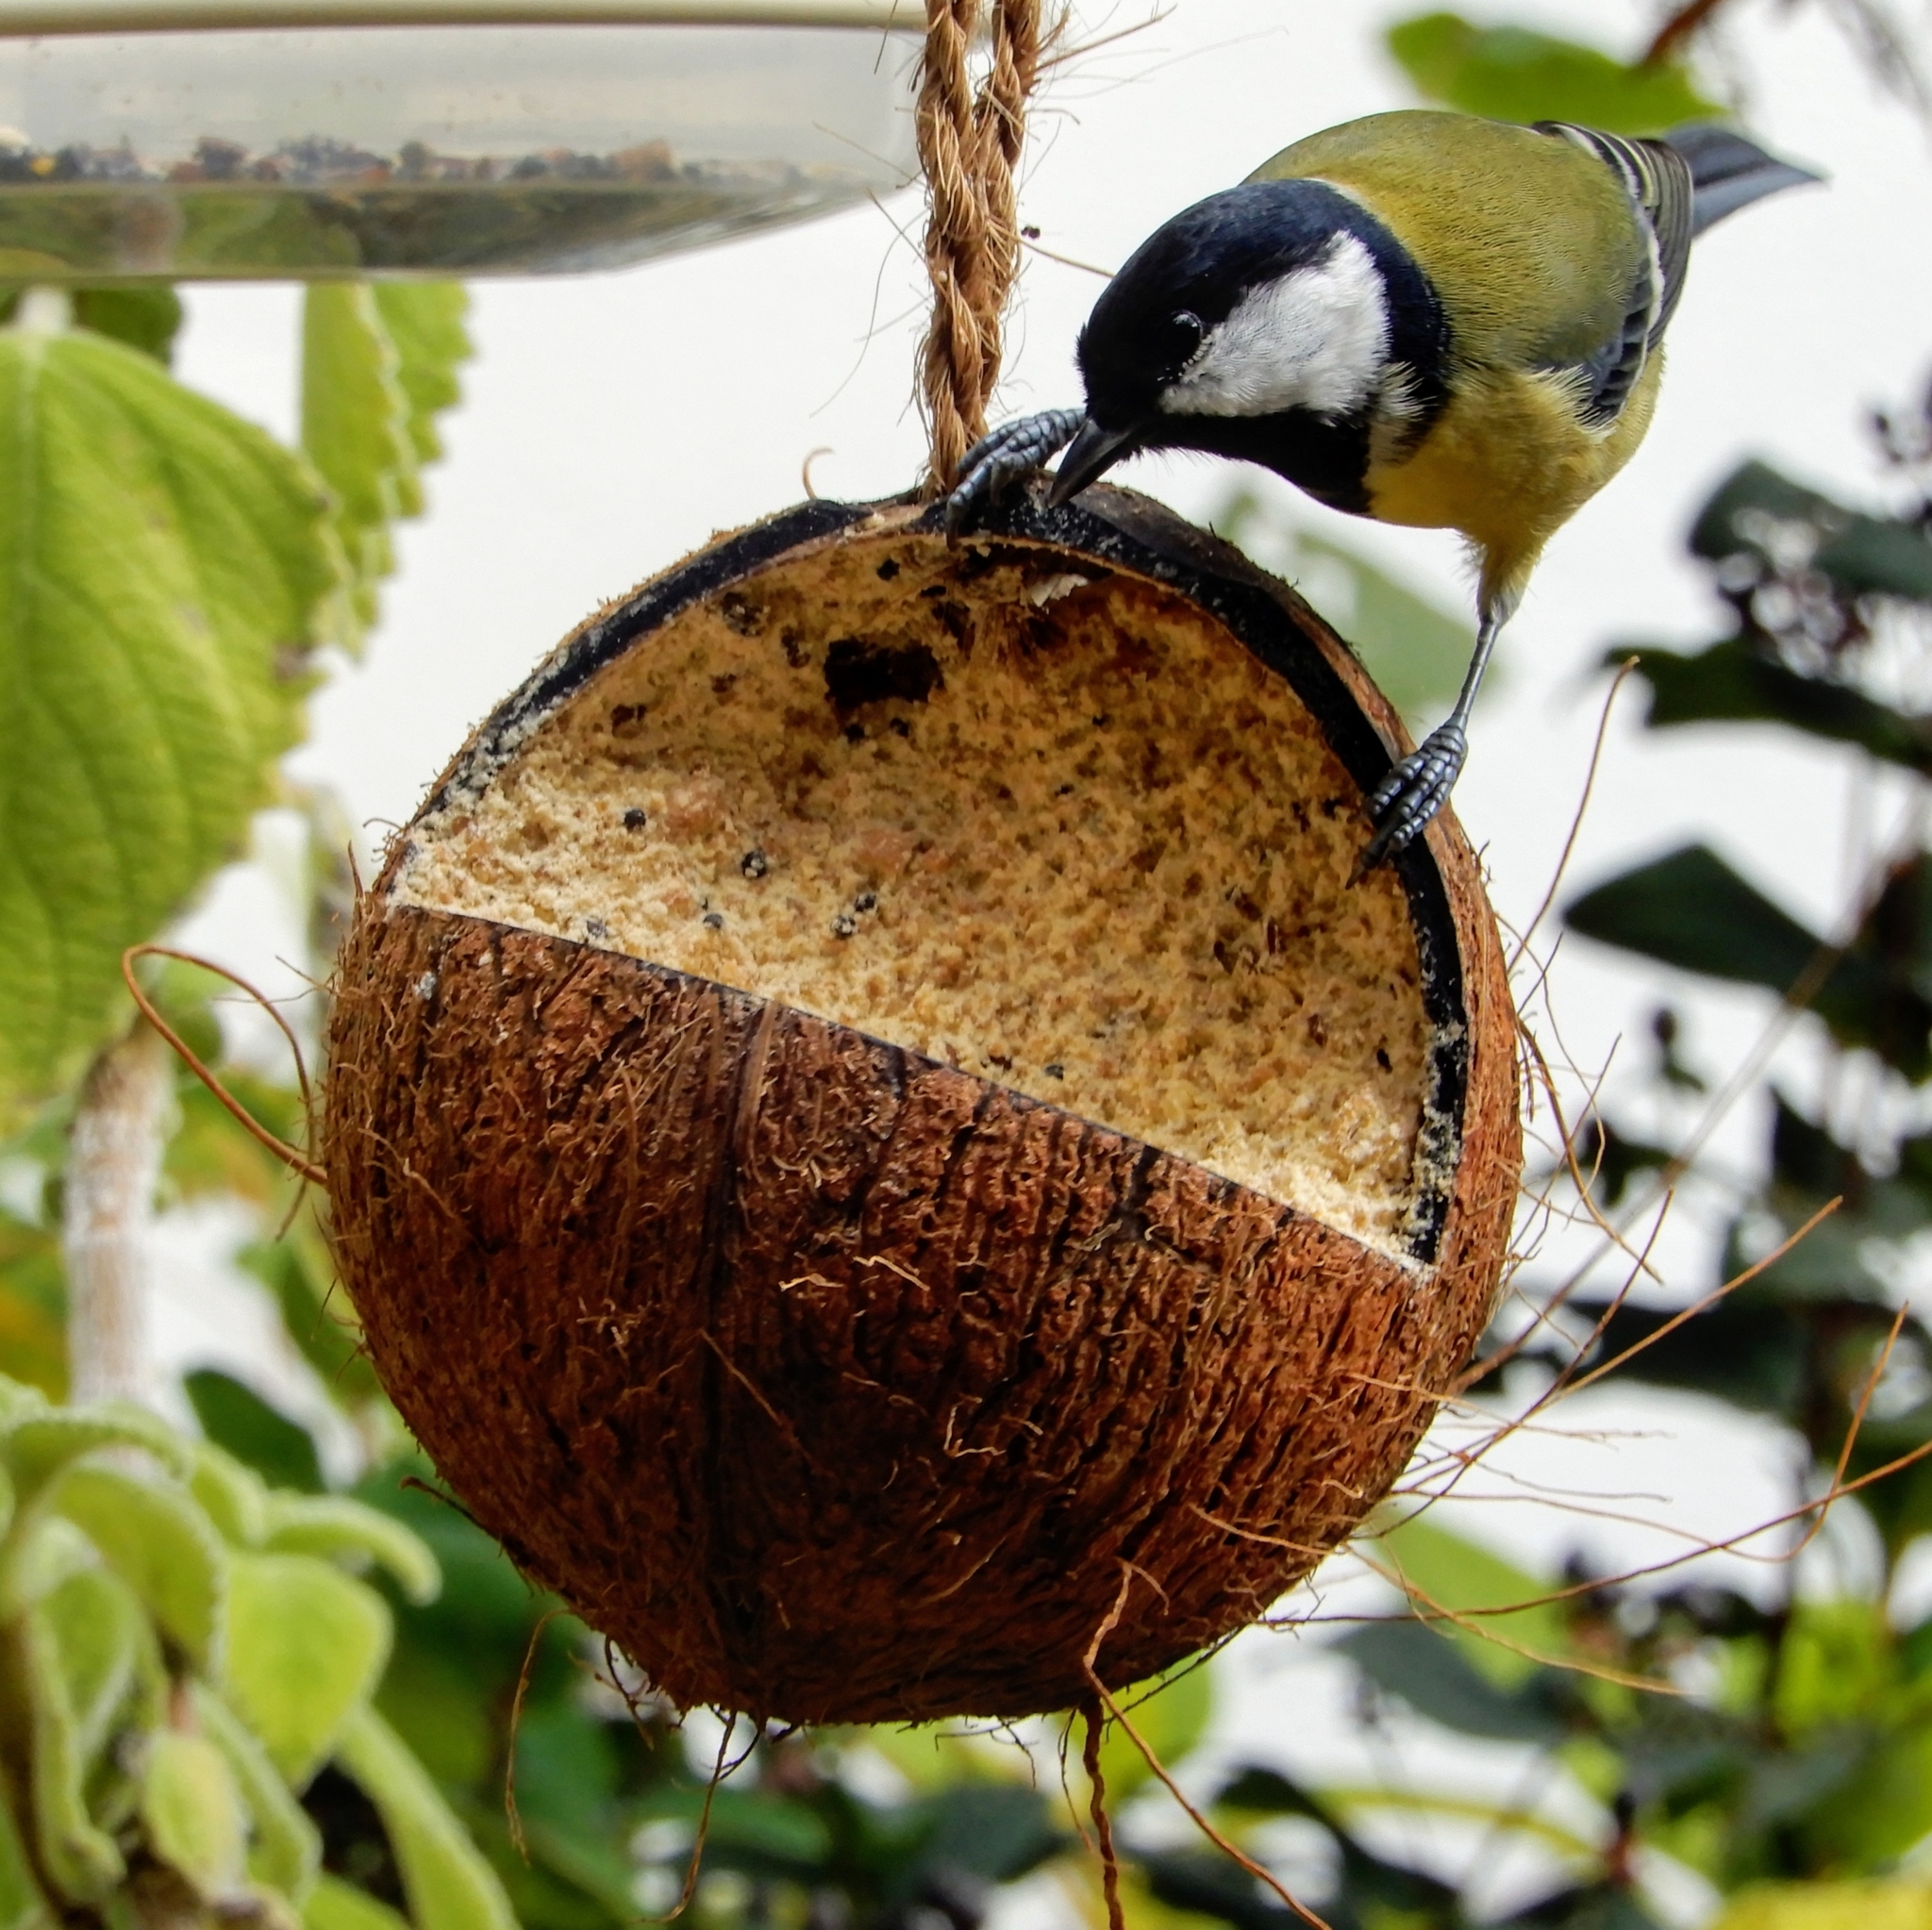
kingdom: Animalia
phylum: Chordata
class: Aves
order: Passeriformes
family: Paridae
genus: Parus
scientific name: Parus major
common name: Great tit
